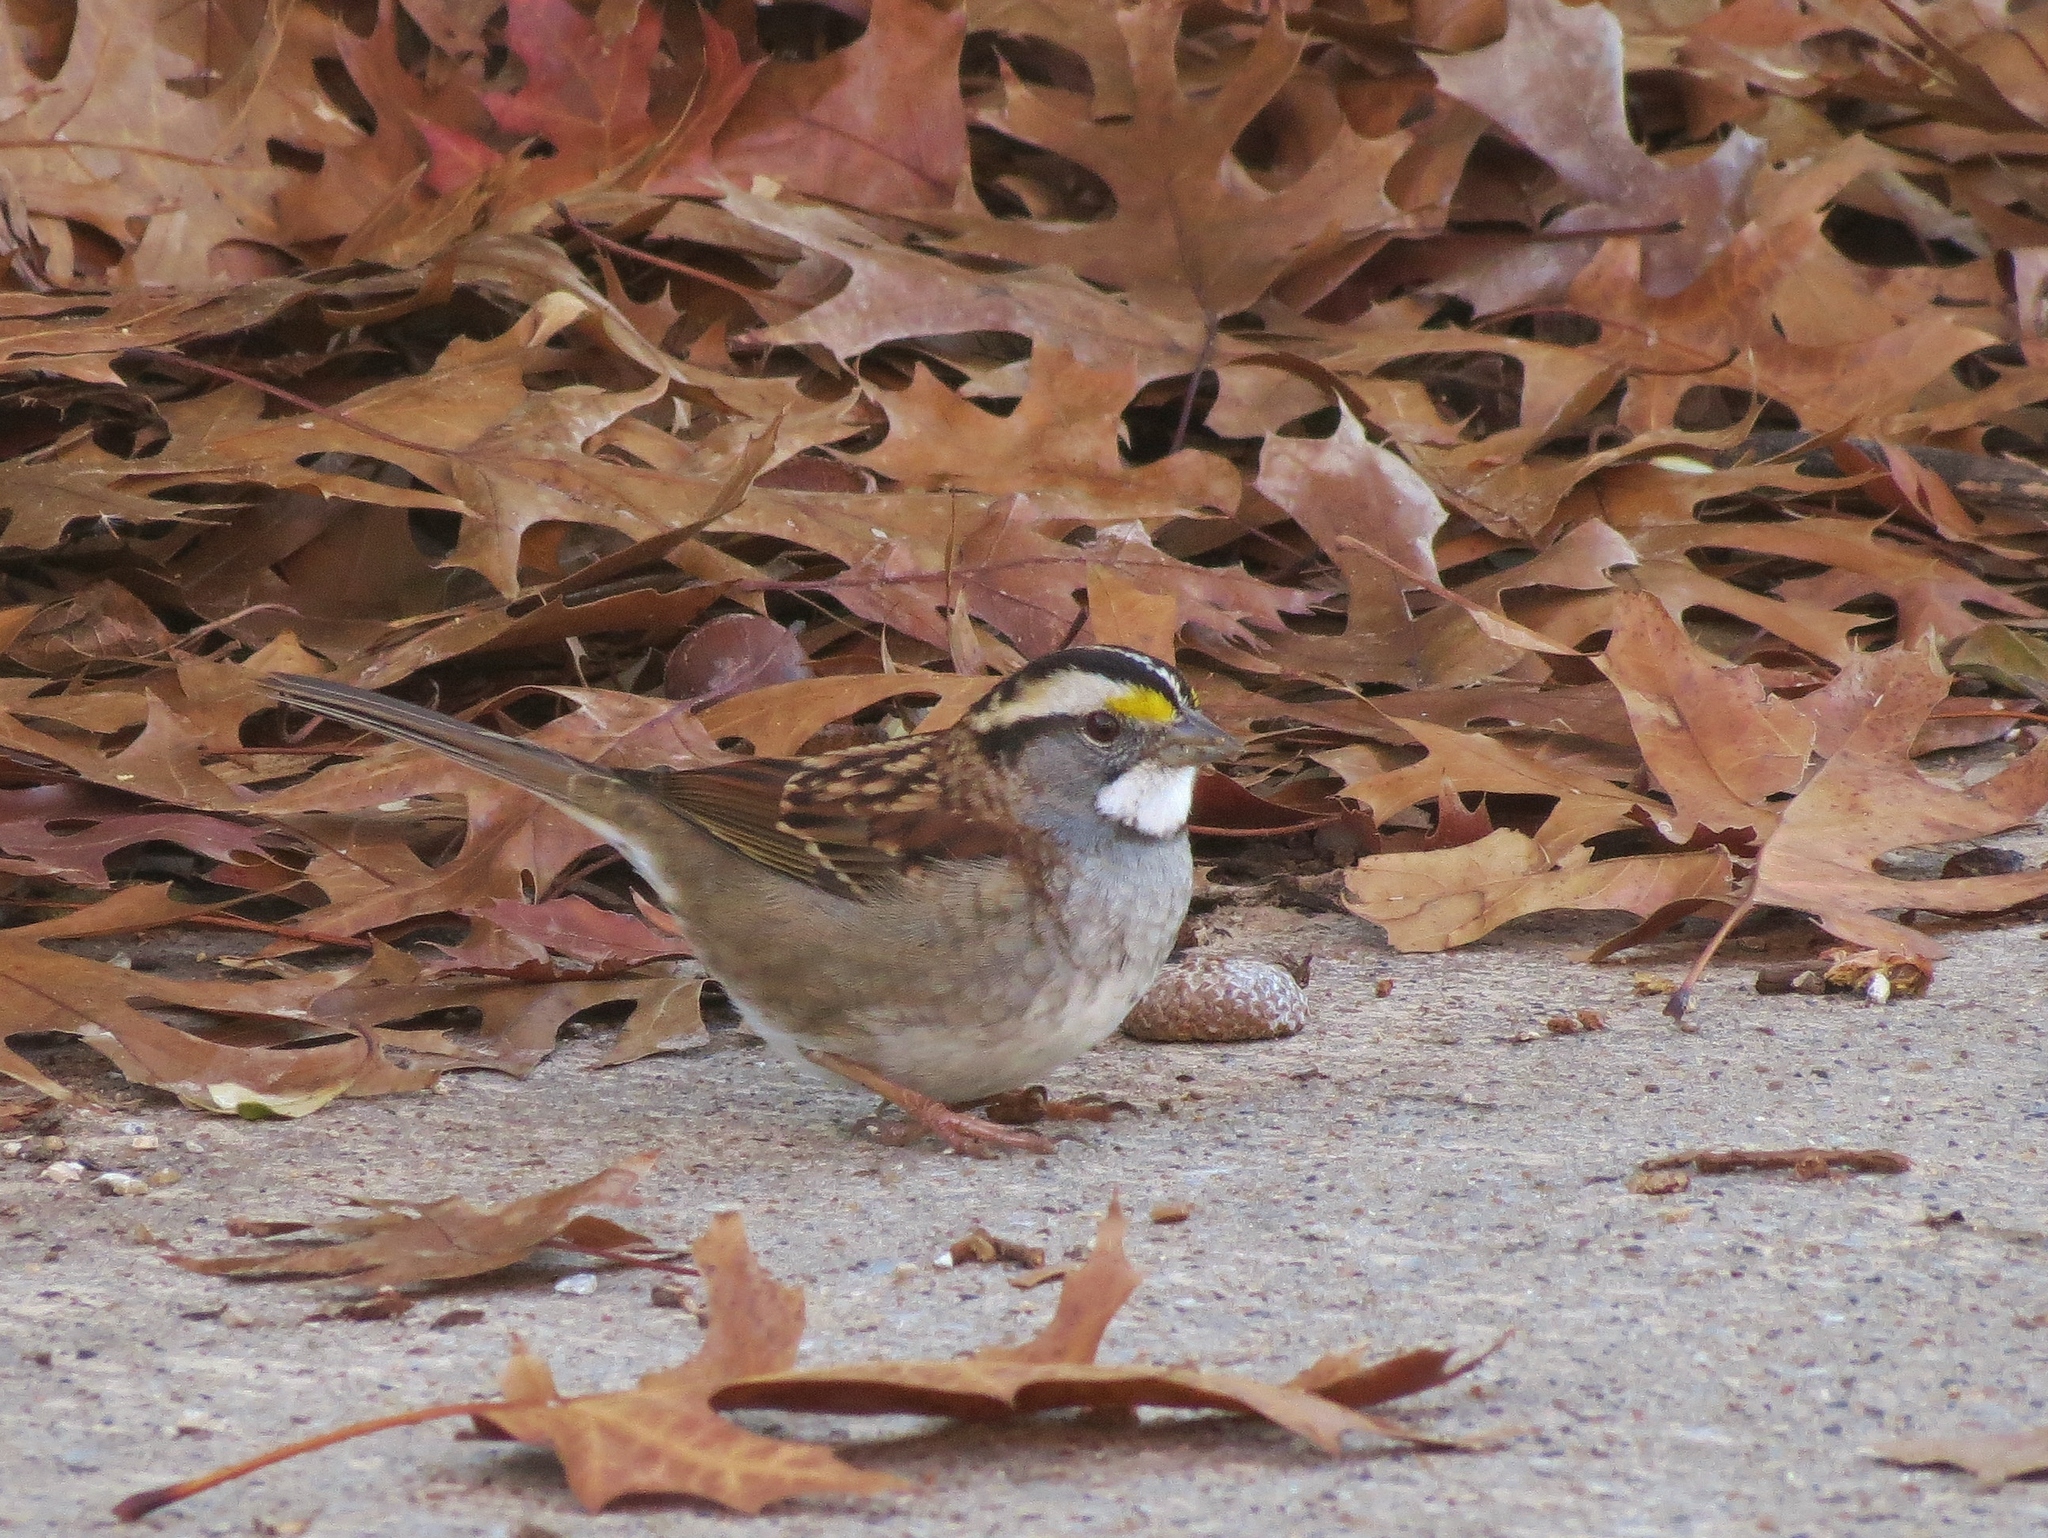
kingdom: Animalia
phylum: Chordata
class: Aves
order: Passeriformes
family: Passerellidae
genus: Zonotrichia
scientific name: Zonotrichia albicollis
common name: White-throated sparrow
